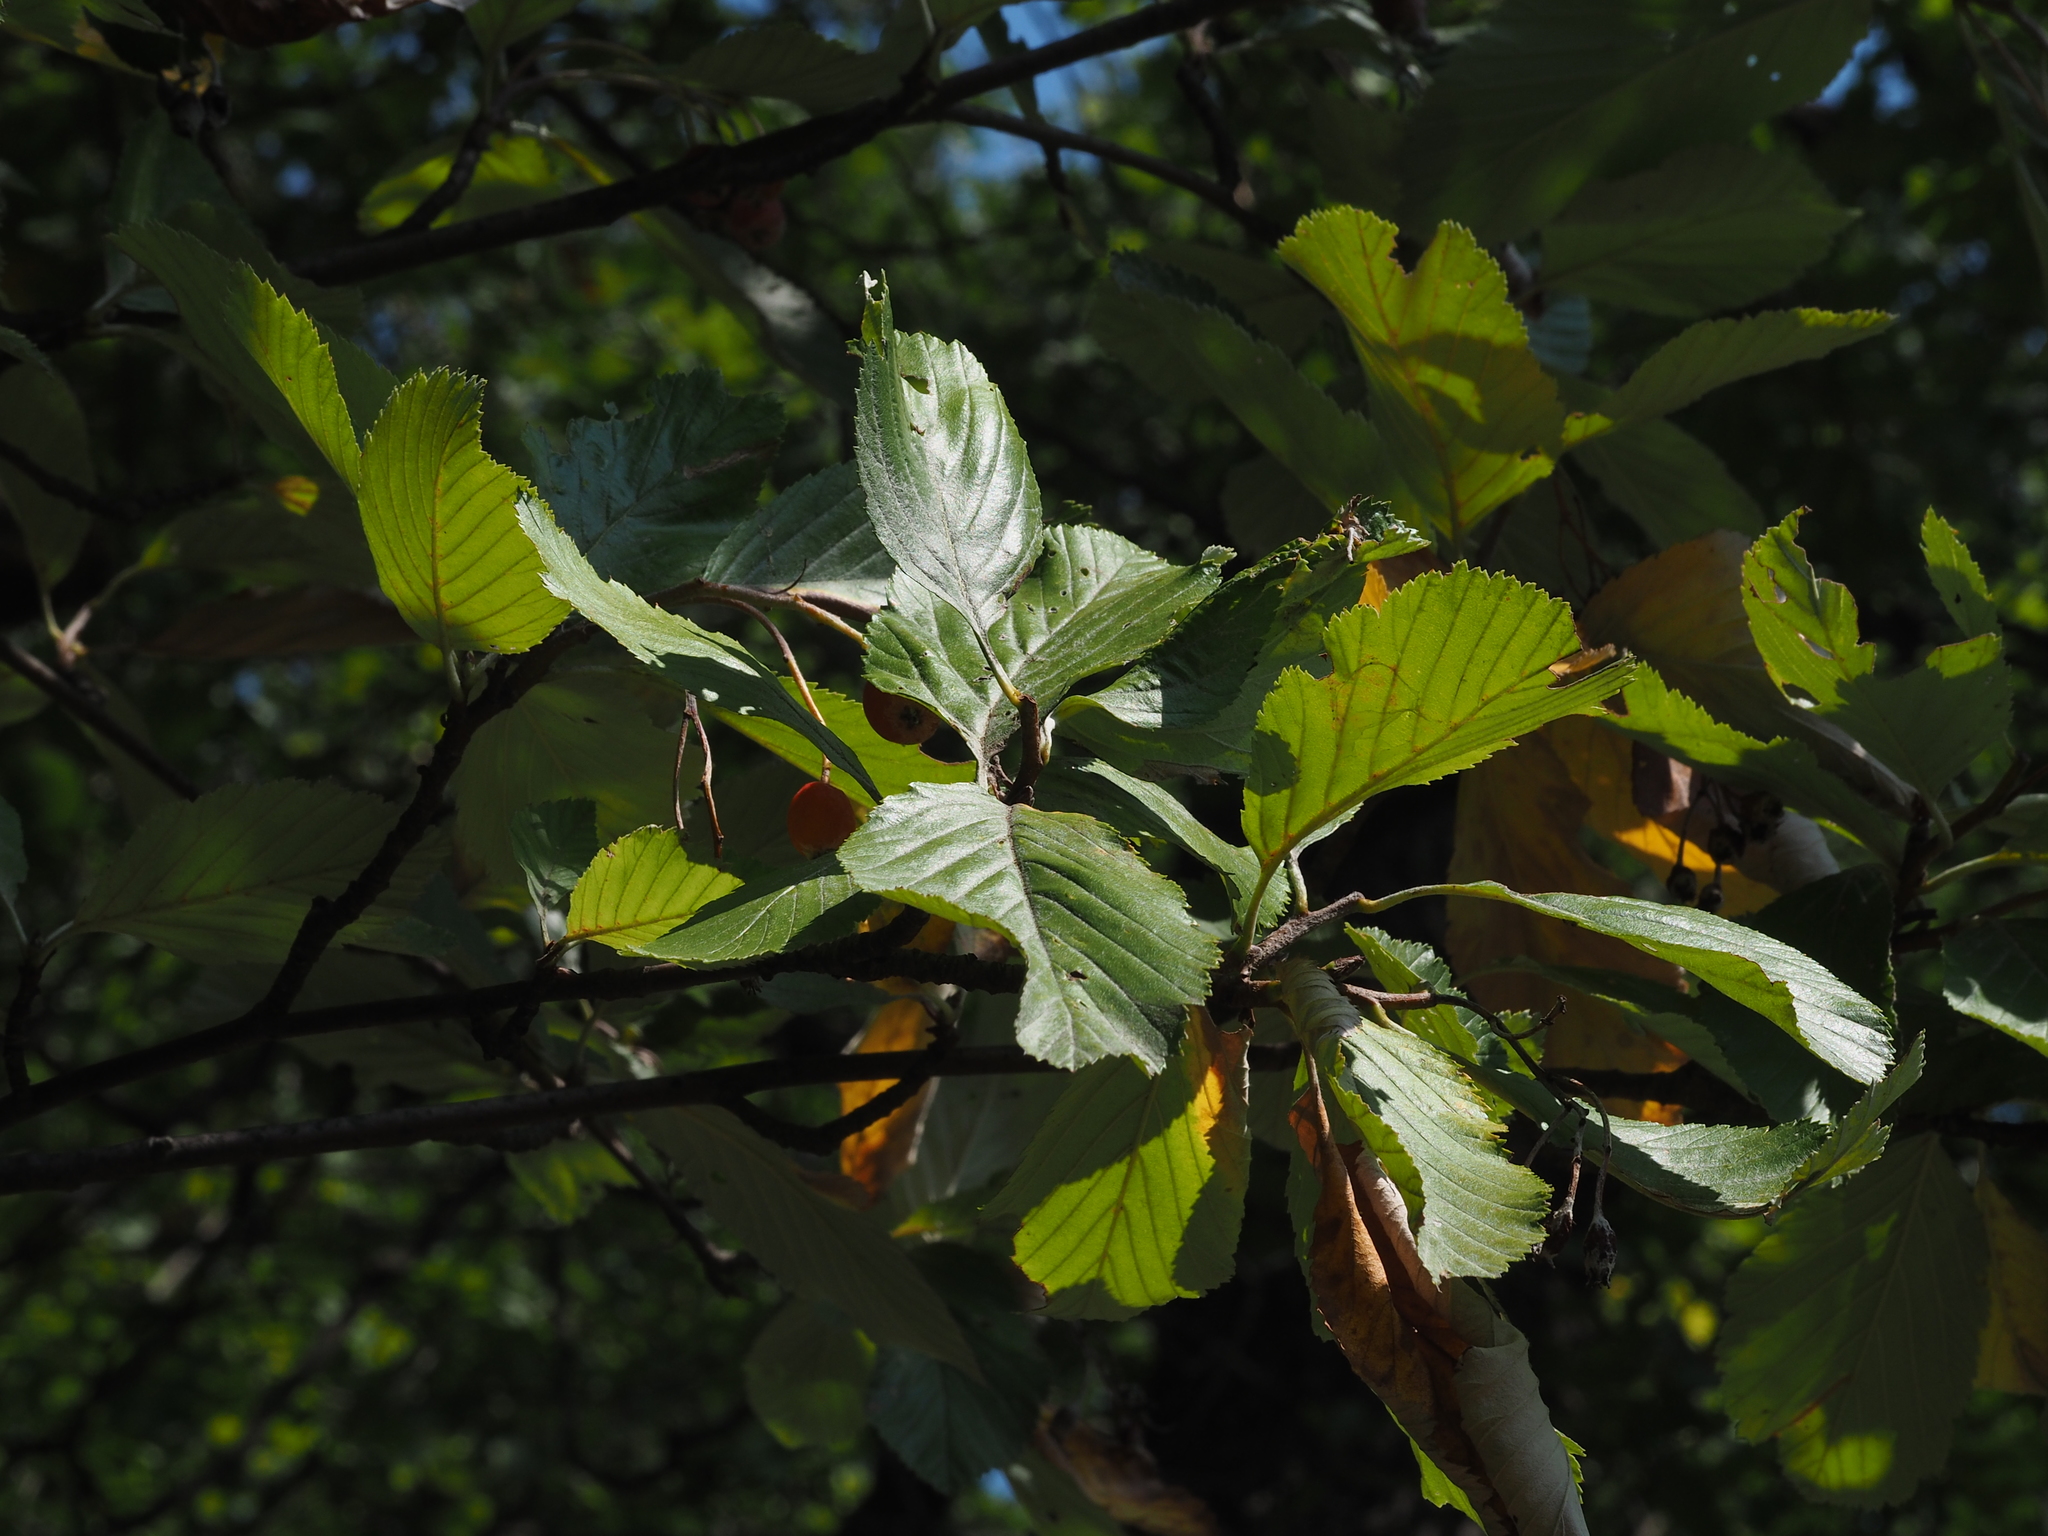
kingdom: Plantae
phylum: Tracheophyta
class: Magnoliopsida
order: Rosales
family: Rosaceae
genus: Aria
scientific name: Aria edulis
